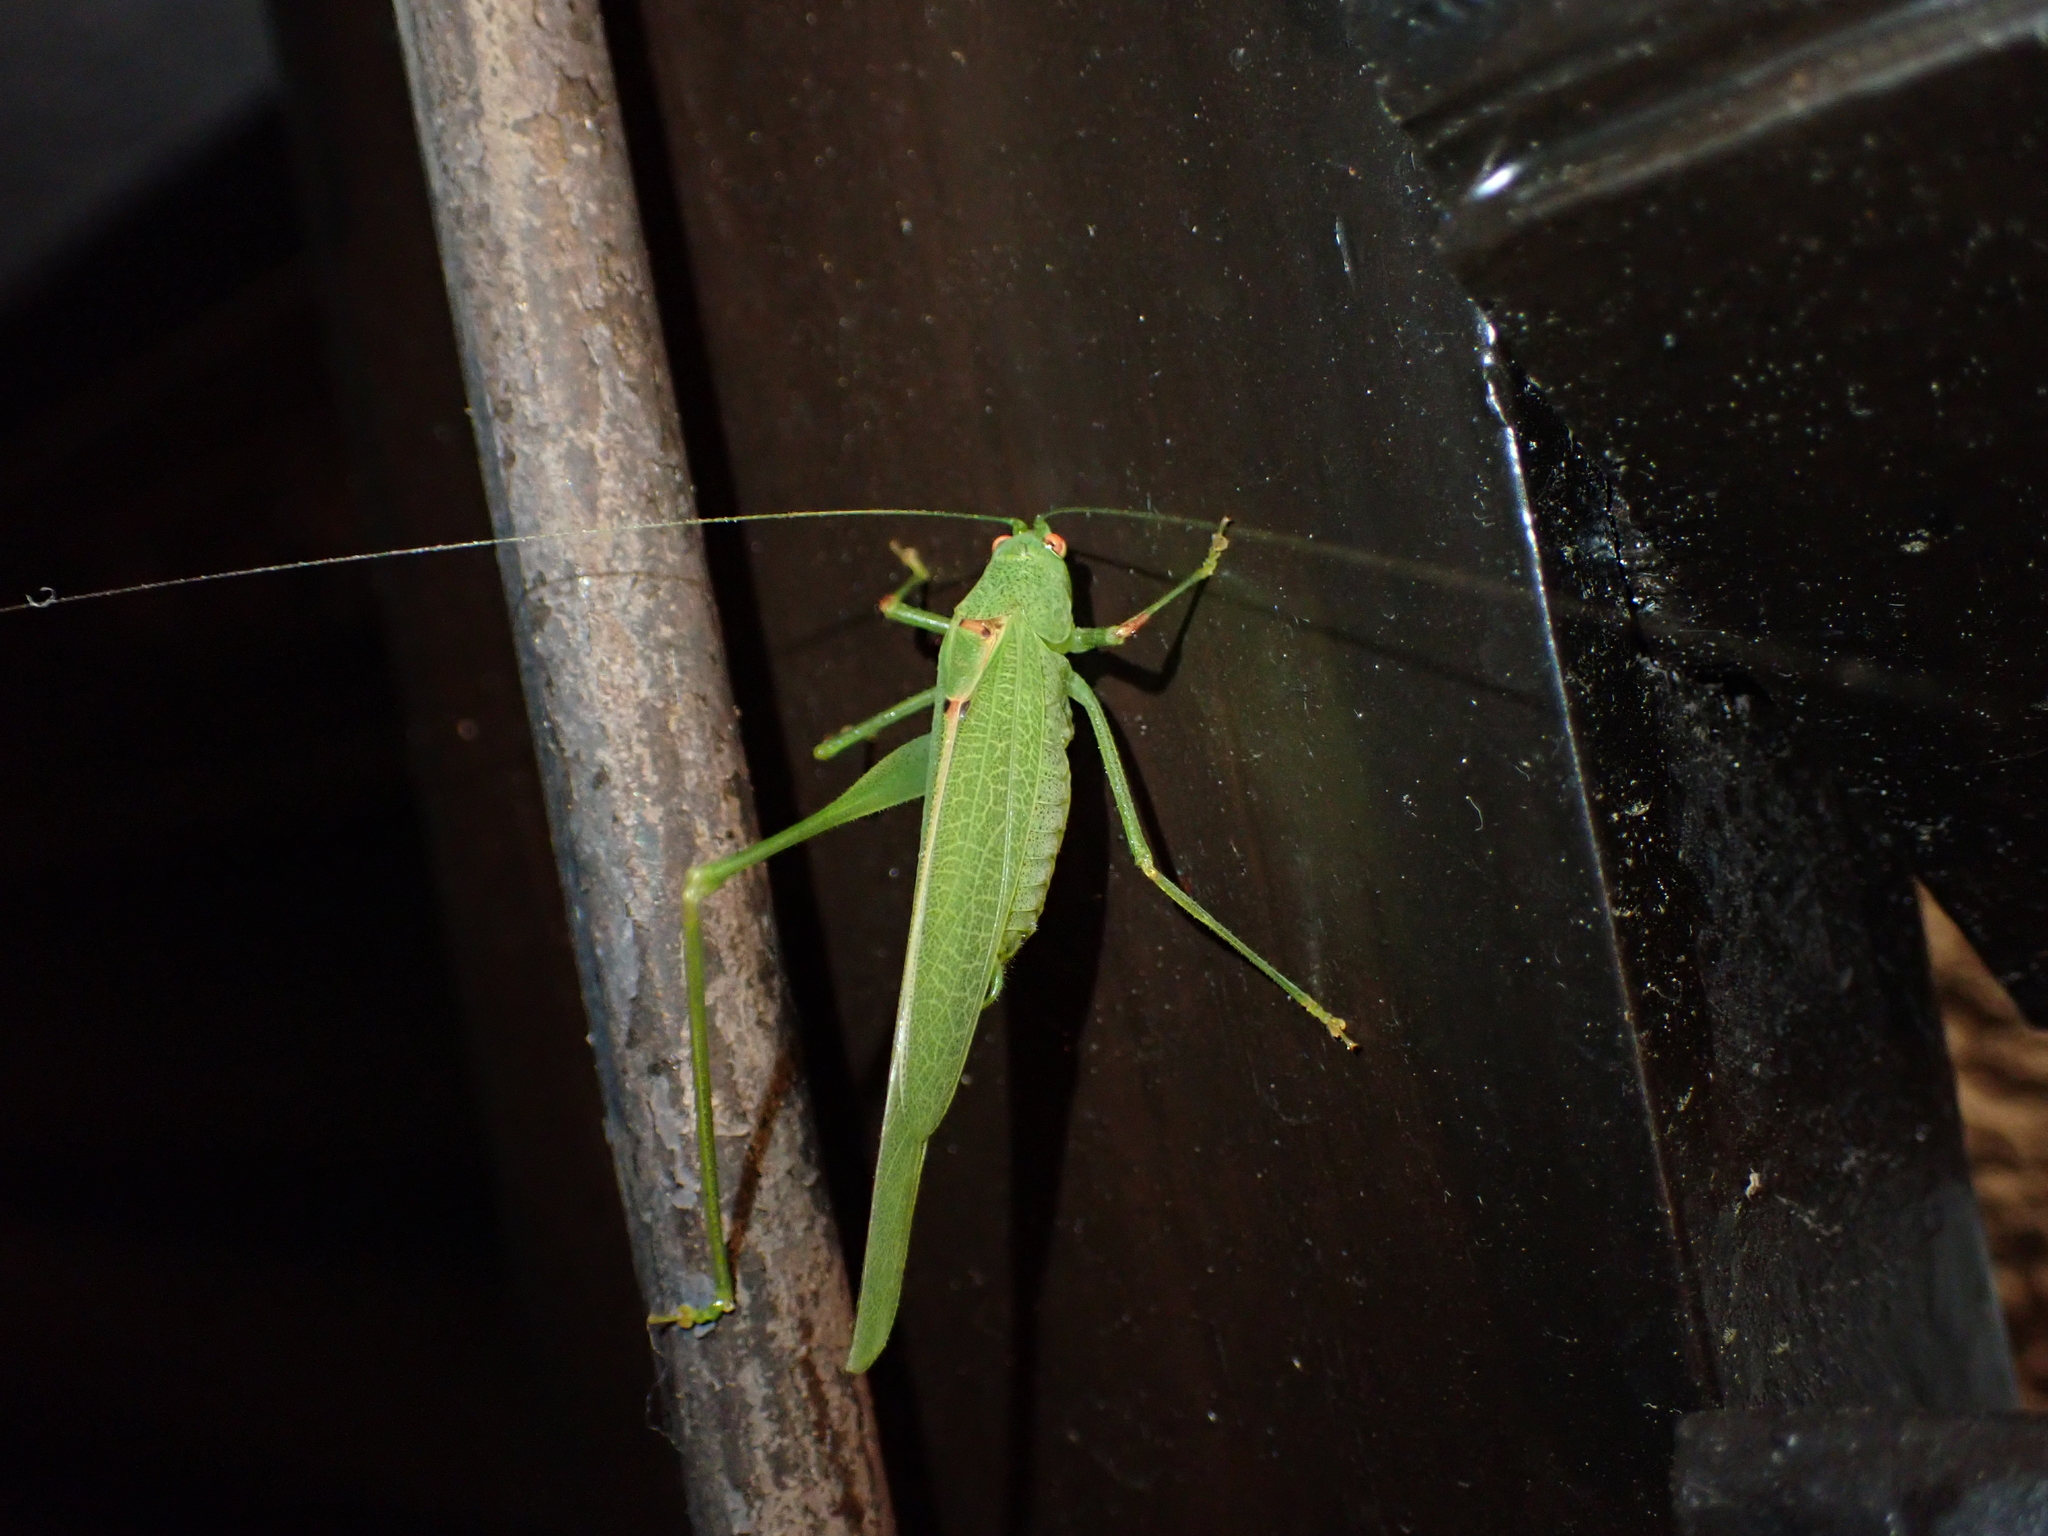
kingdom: Animalia
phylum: Arthropoda
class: Insecta
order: Orthoptera
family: Tettigoniidae
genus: Phaneroptera
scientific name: Phaneroptera nana
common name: Southern sickle bush-cricket
